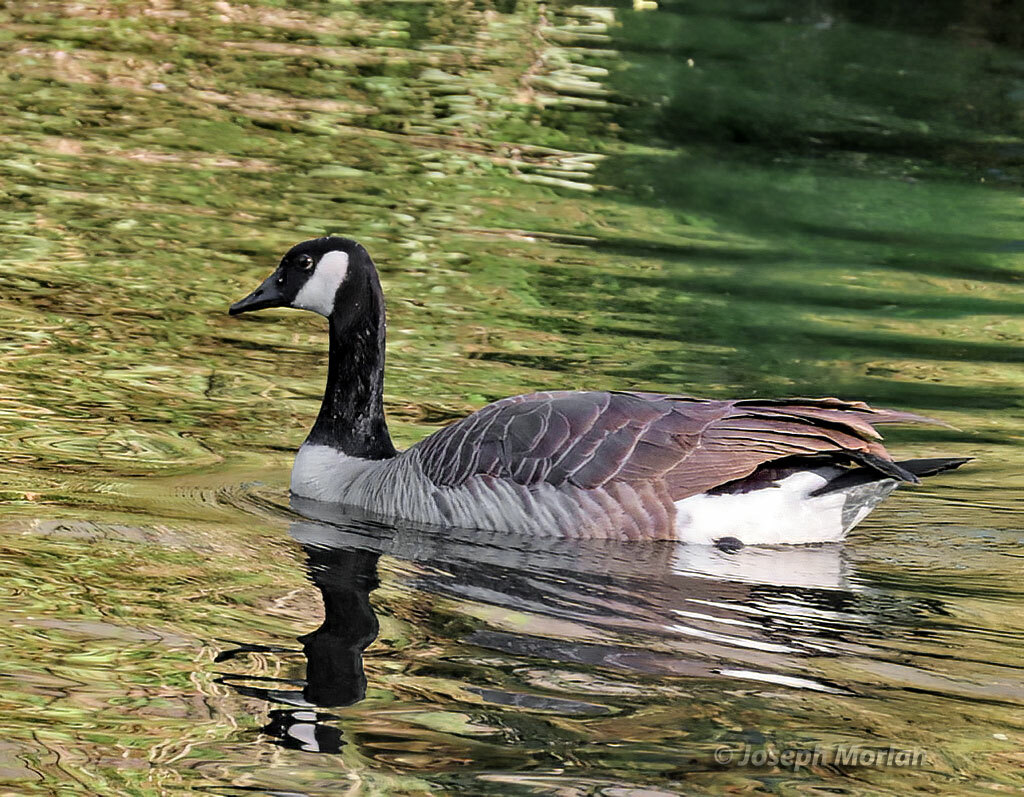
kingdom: Animalia
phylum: Chordata
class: Aves
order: Anseriformes
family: Anatidae
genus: Branta
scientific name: Branta canadensis
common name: Canada goose
